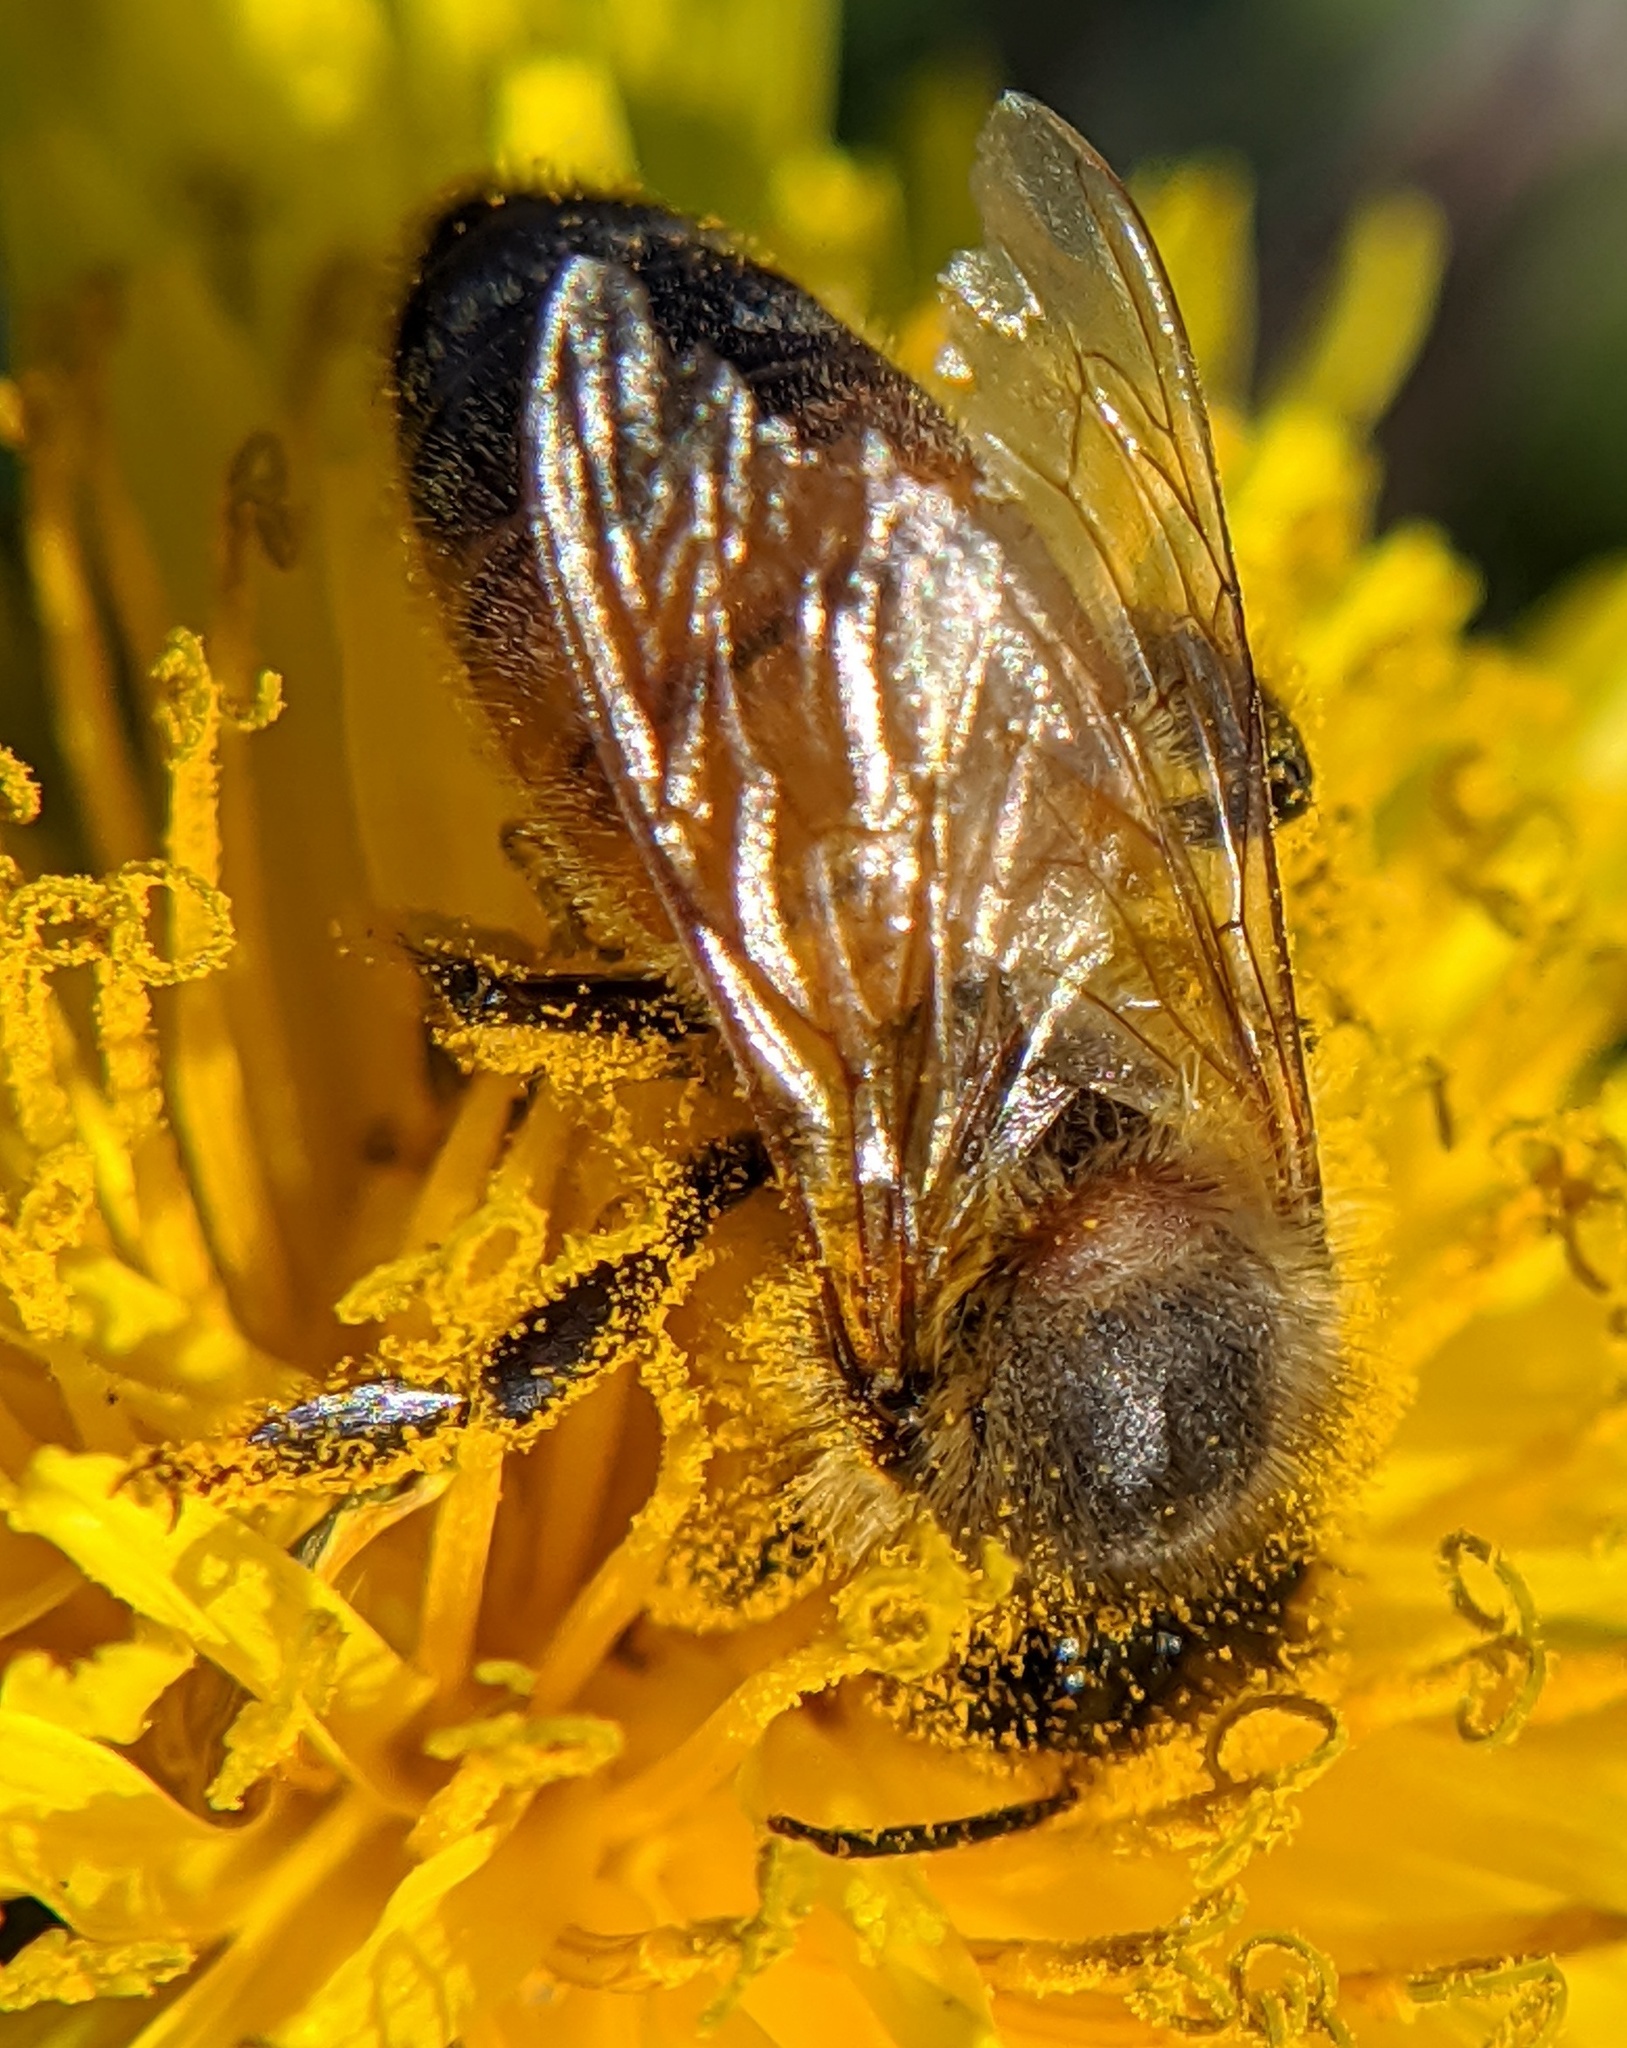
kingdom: Animalia
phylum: Arthropoda
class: Insecta
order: Hymenoptera
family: Apidae
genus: Apis
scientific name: Apis mellifera
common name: Honey bee
